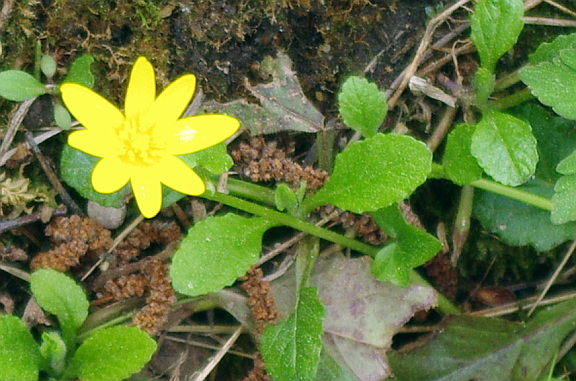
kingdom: Plantae
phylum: Tracheophyta
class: Magnoliopsida
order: Ranunculales
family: Ranunculaceae
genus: Ficaria
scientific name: Ficaria verna
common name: Lesser celandine
